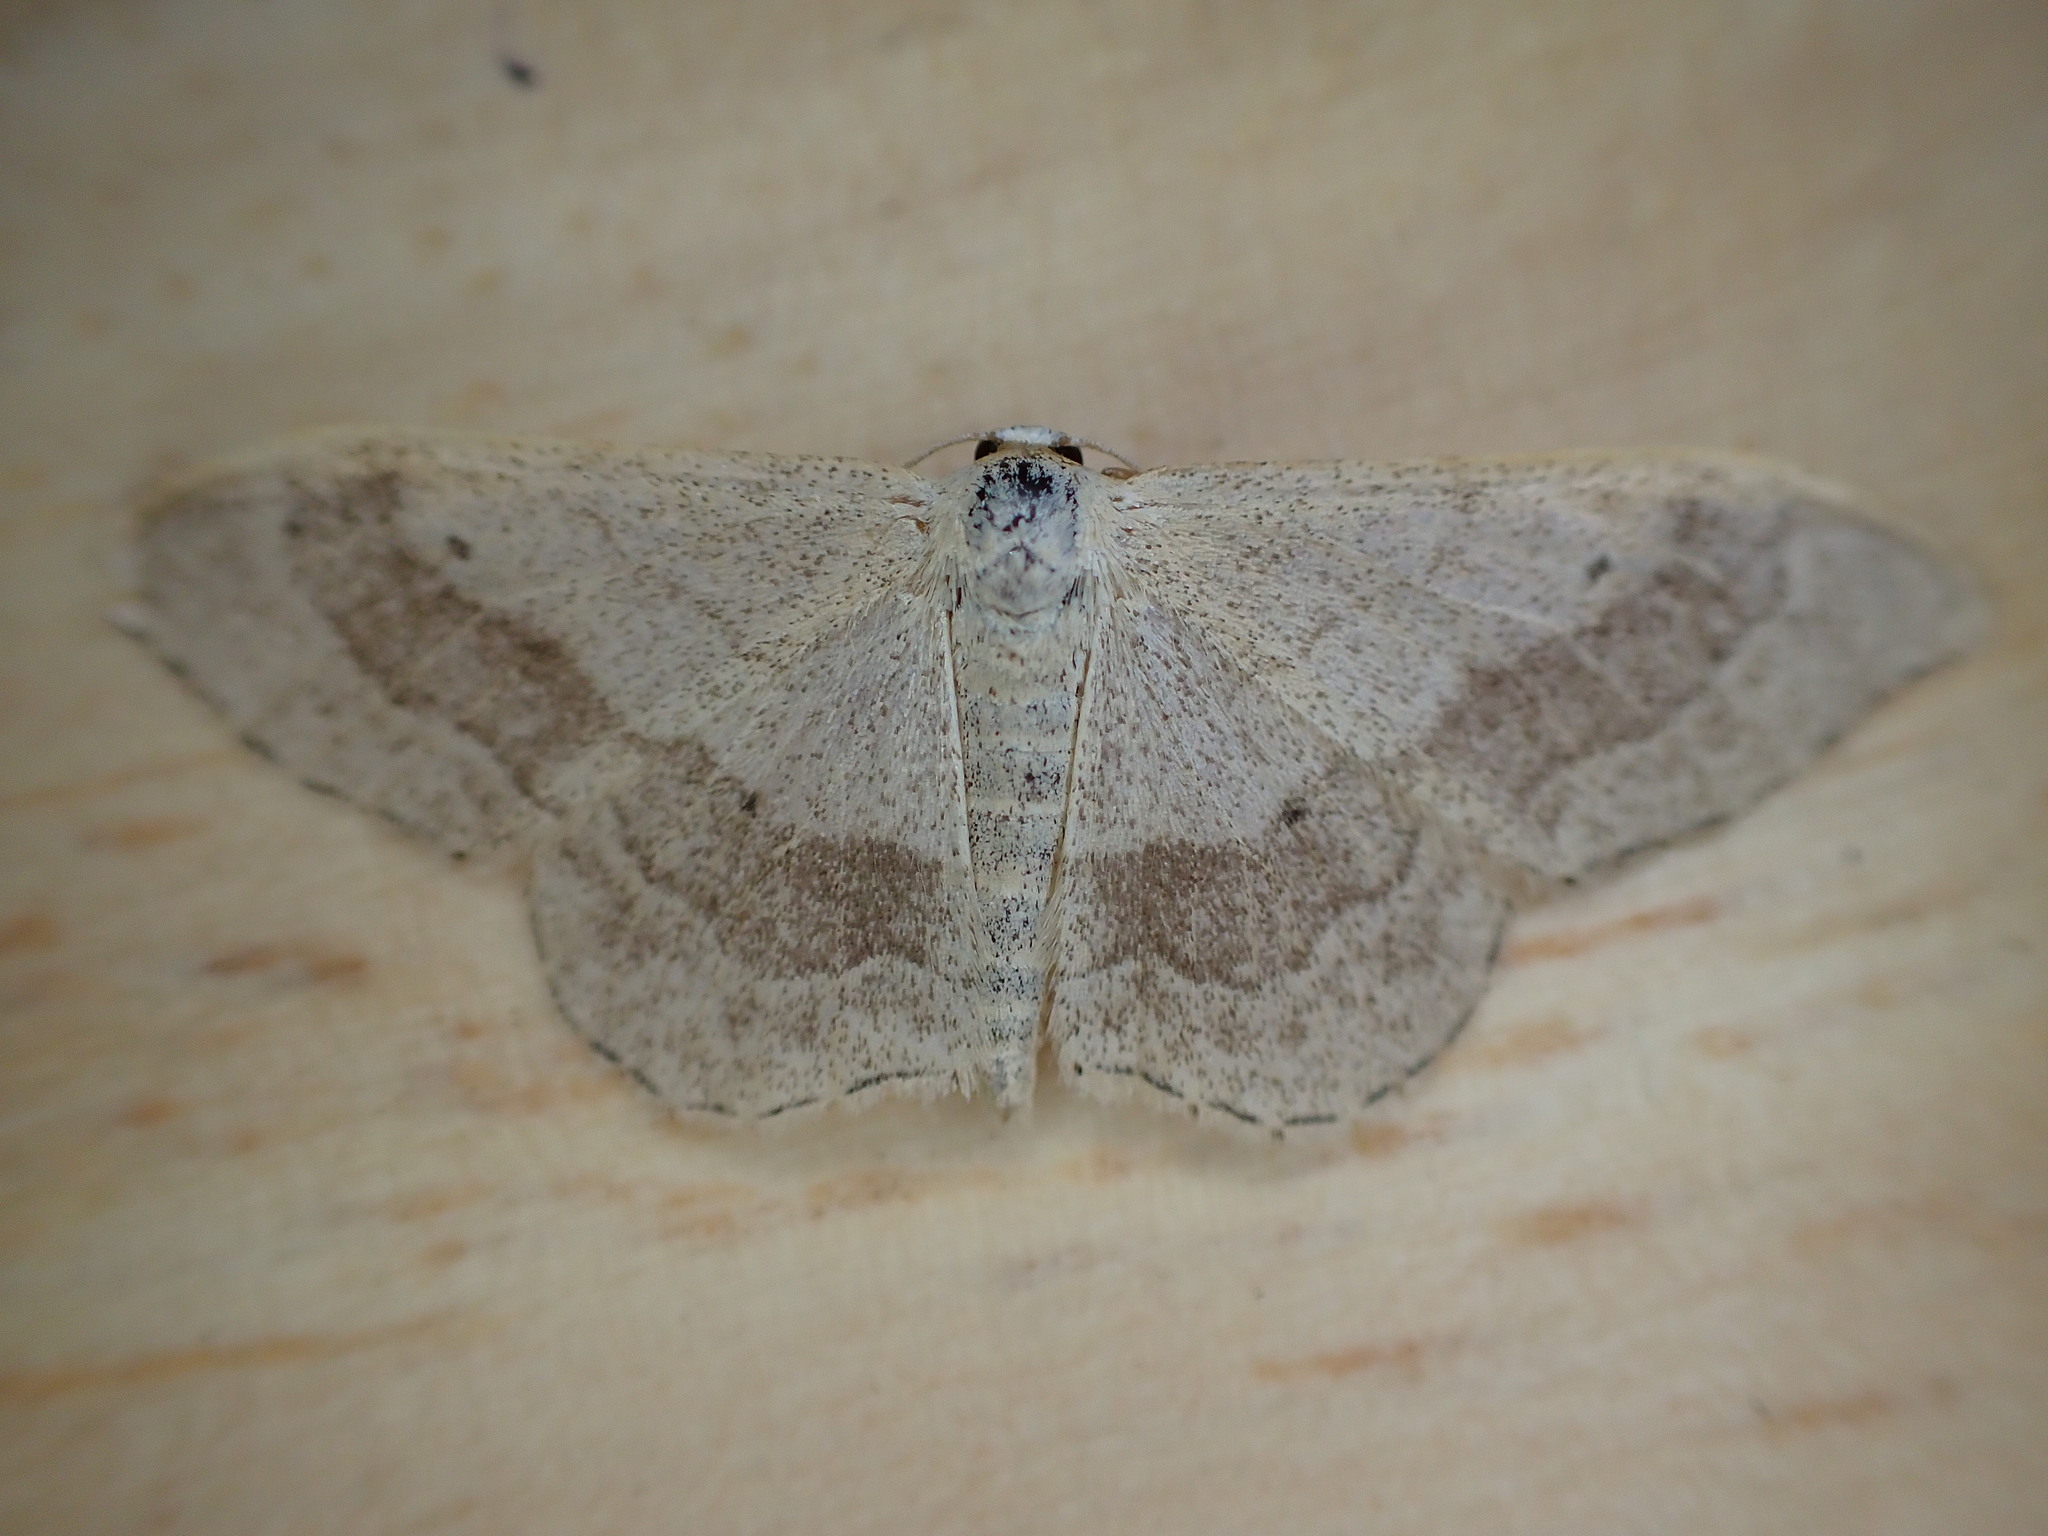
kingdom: Animalia
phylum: Arthropoda
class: Insecta
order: Lepidoptera
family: Geometridae
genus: Idaea
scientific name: Idaea aversata
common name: Riband wave
